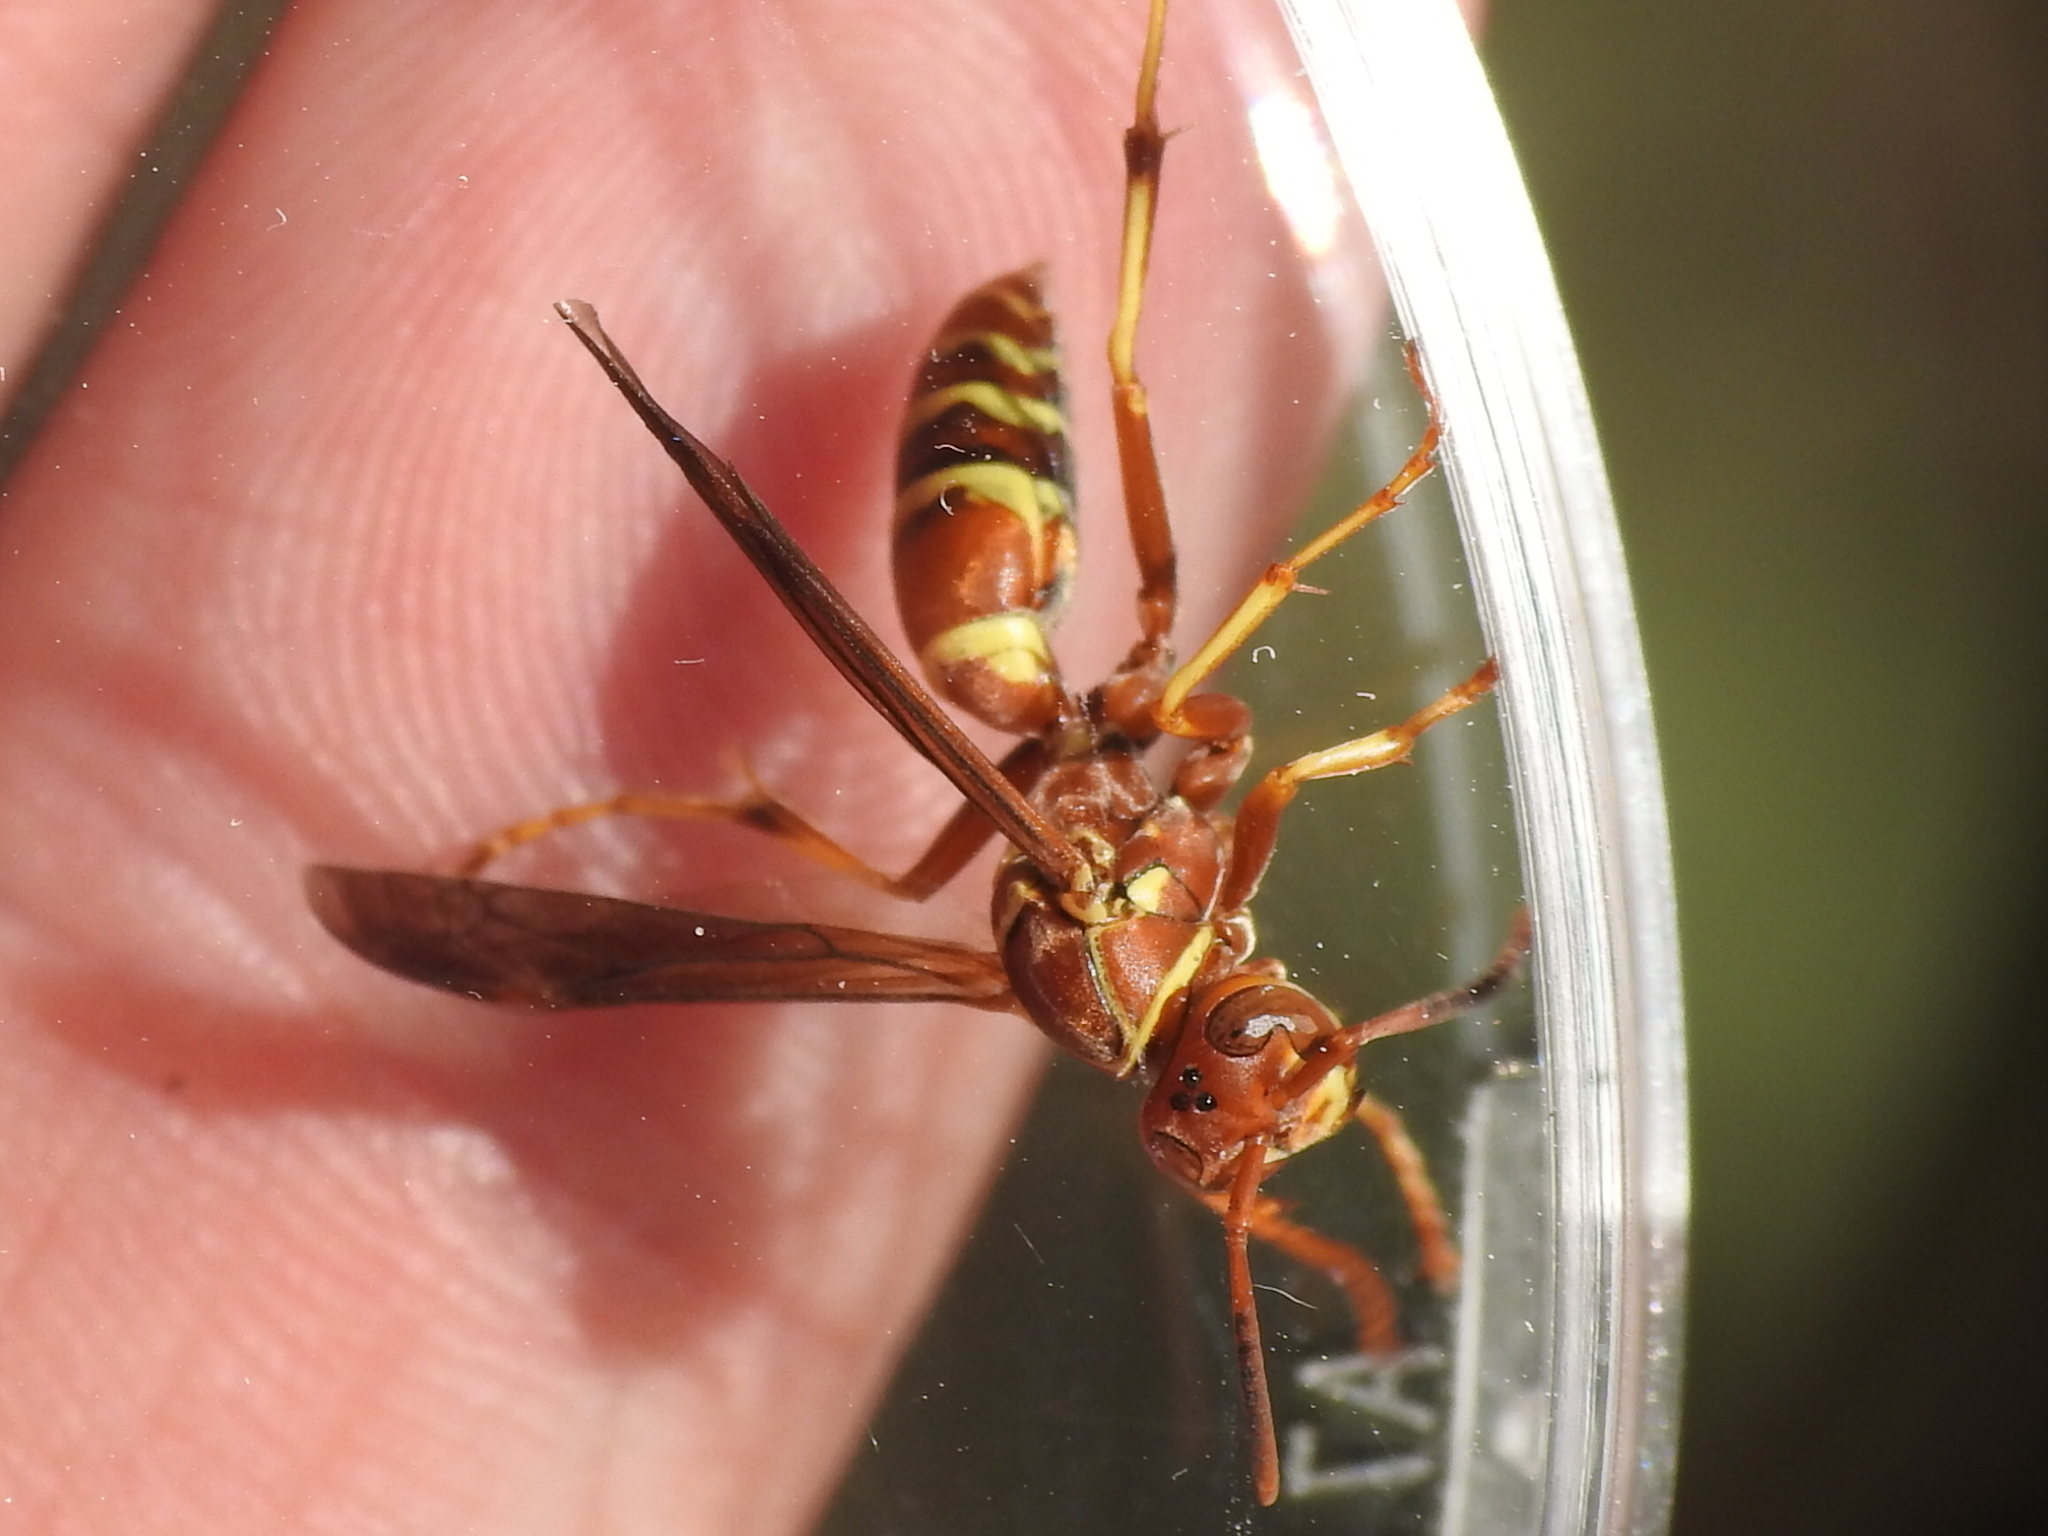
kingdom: Animalia
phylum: Arthropoda
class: Insecta
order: Hymenoptera
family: Eumenidae
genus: Polistes
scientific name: Polistes dorsalis
